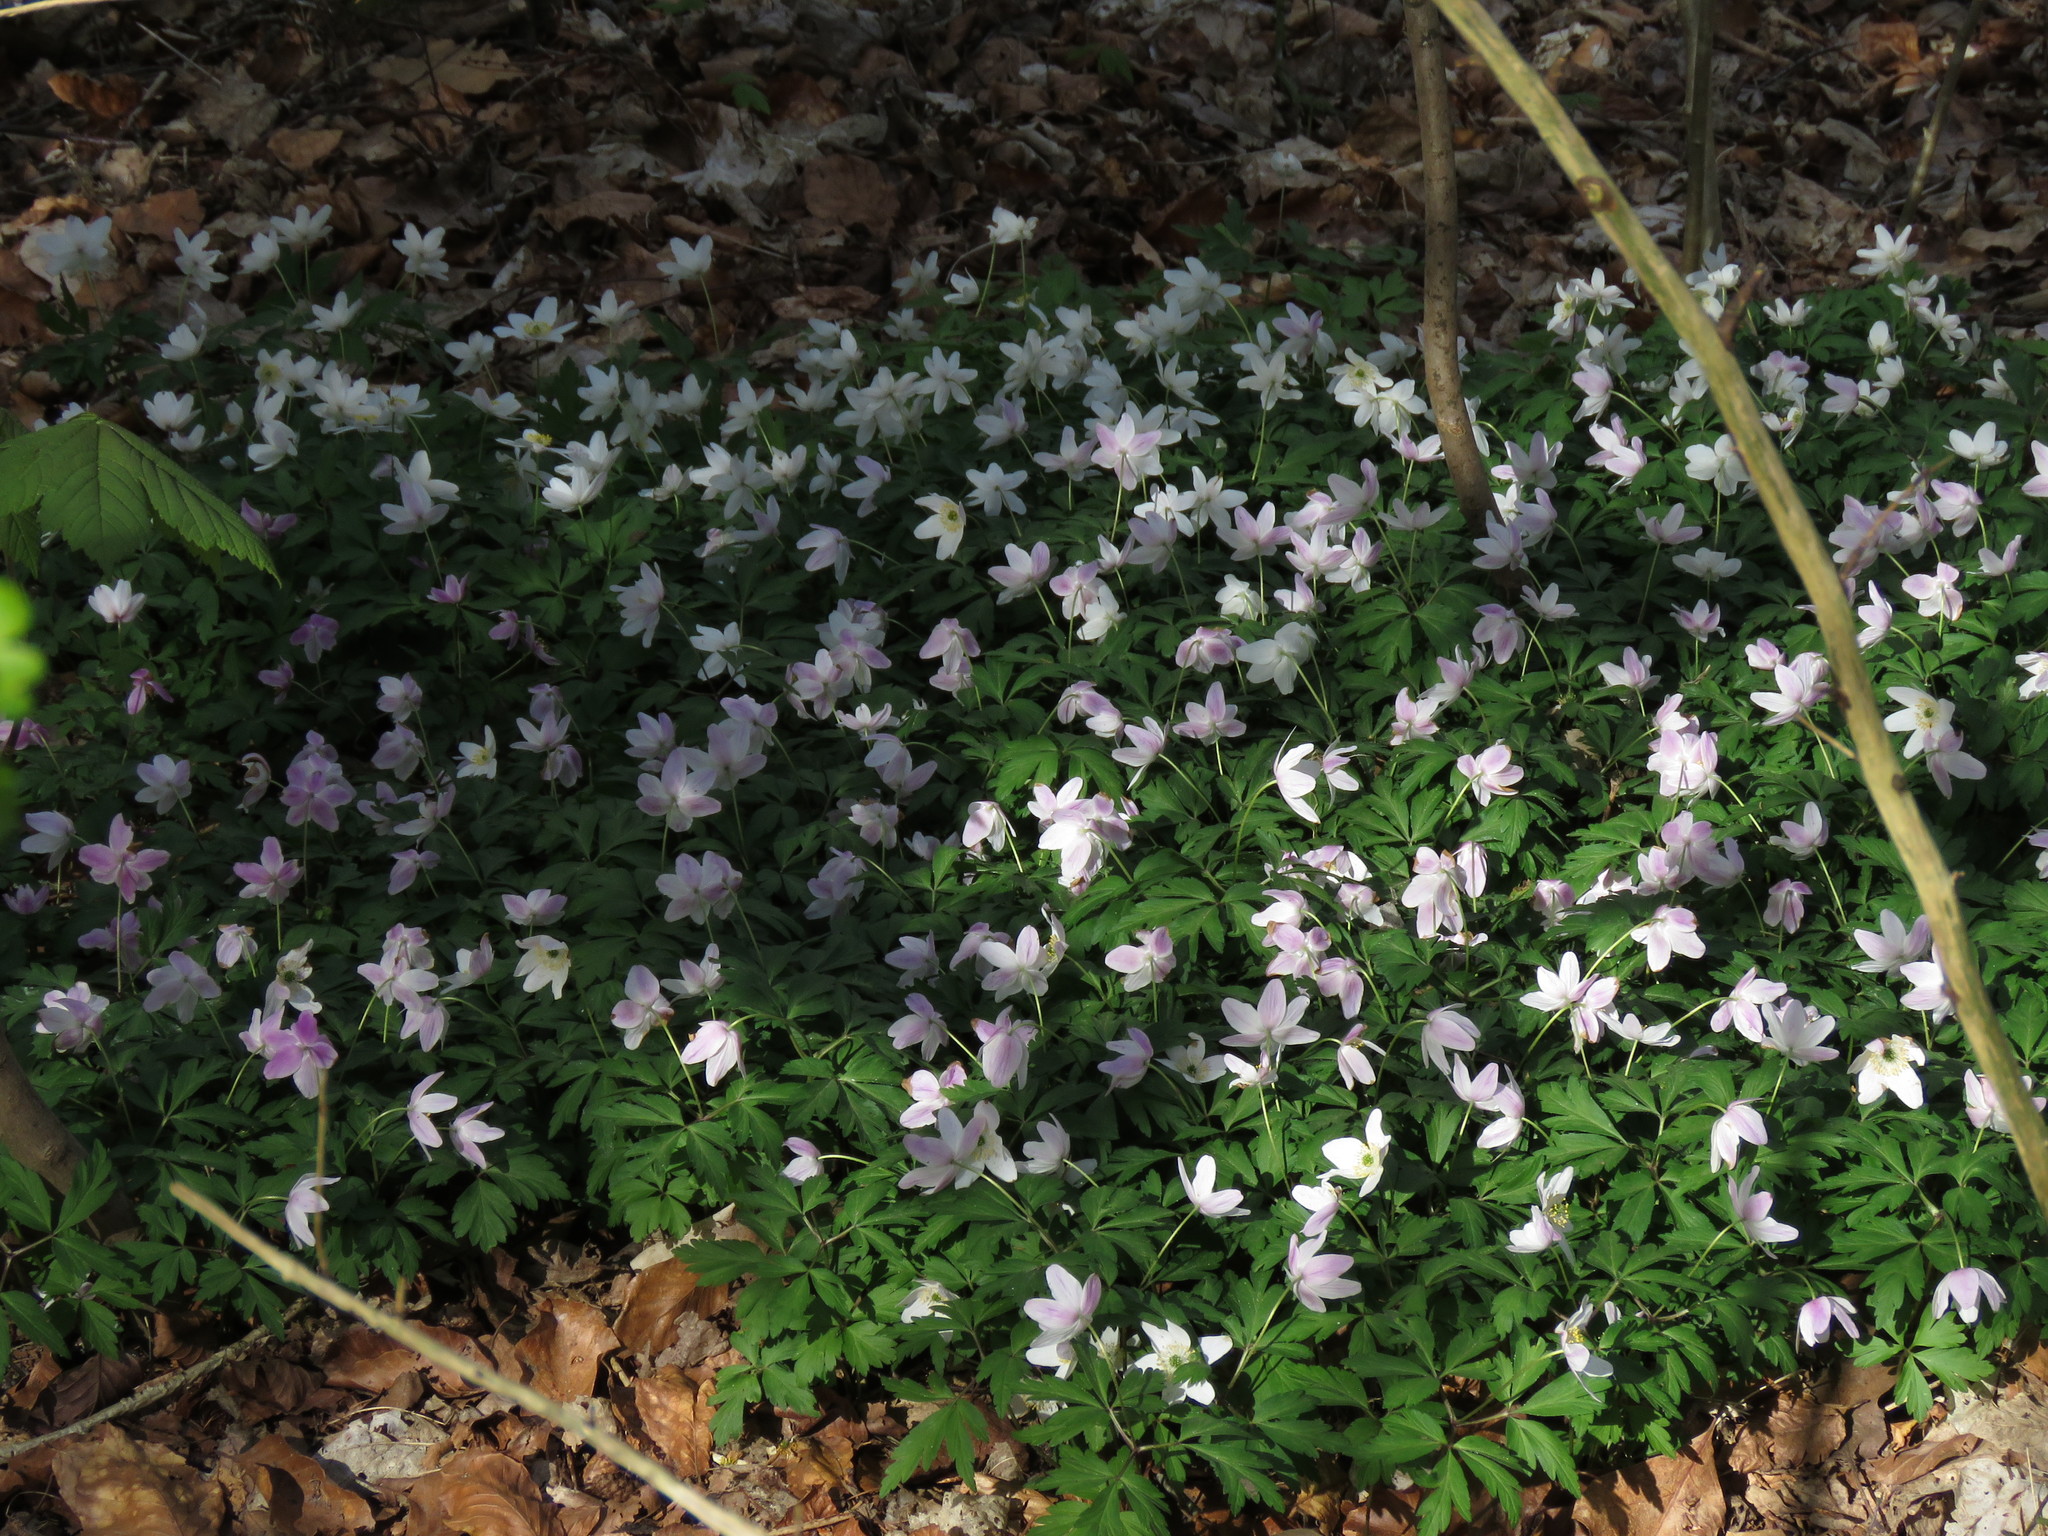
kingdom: Plantae
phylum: Tracheophyta
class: Magnoliopsida
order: Ranunculales
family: Ranunculaceae
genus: Anemone
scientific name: Anemone nemorosa
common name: Wood anemone
